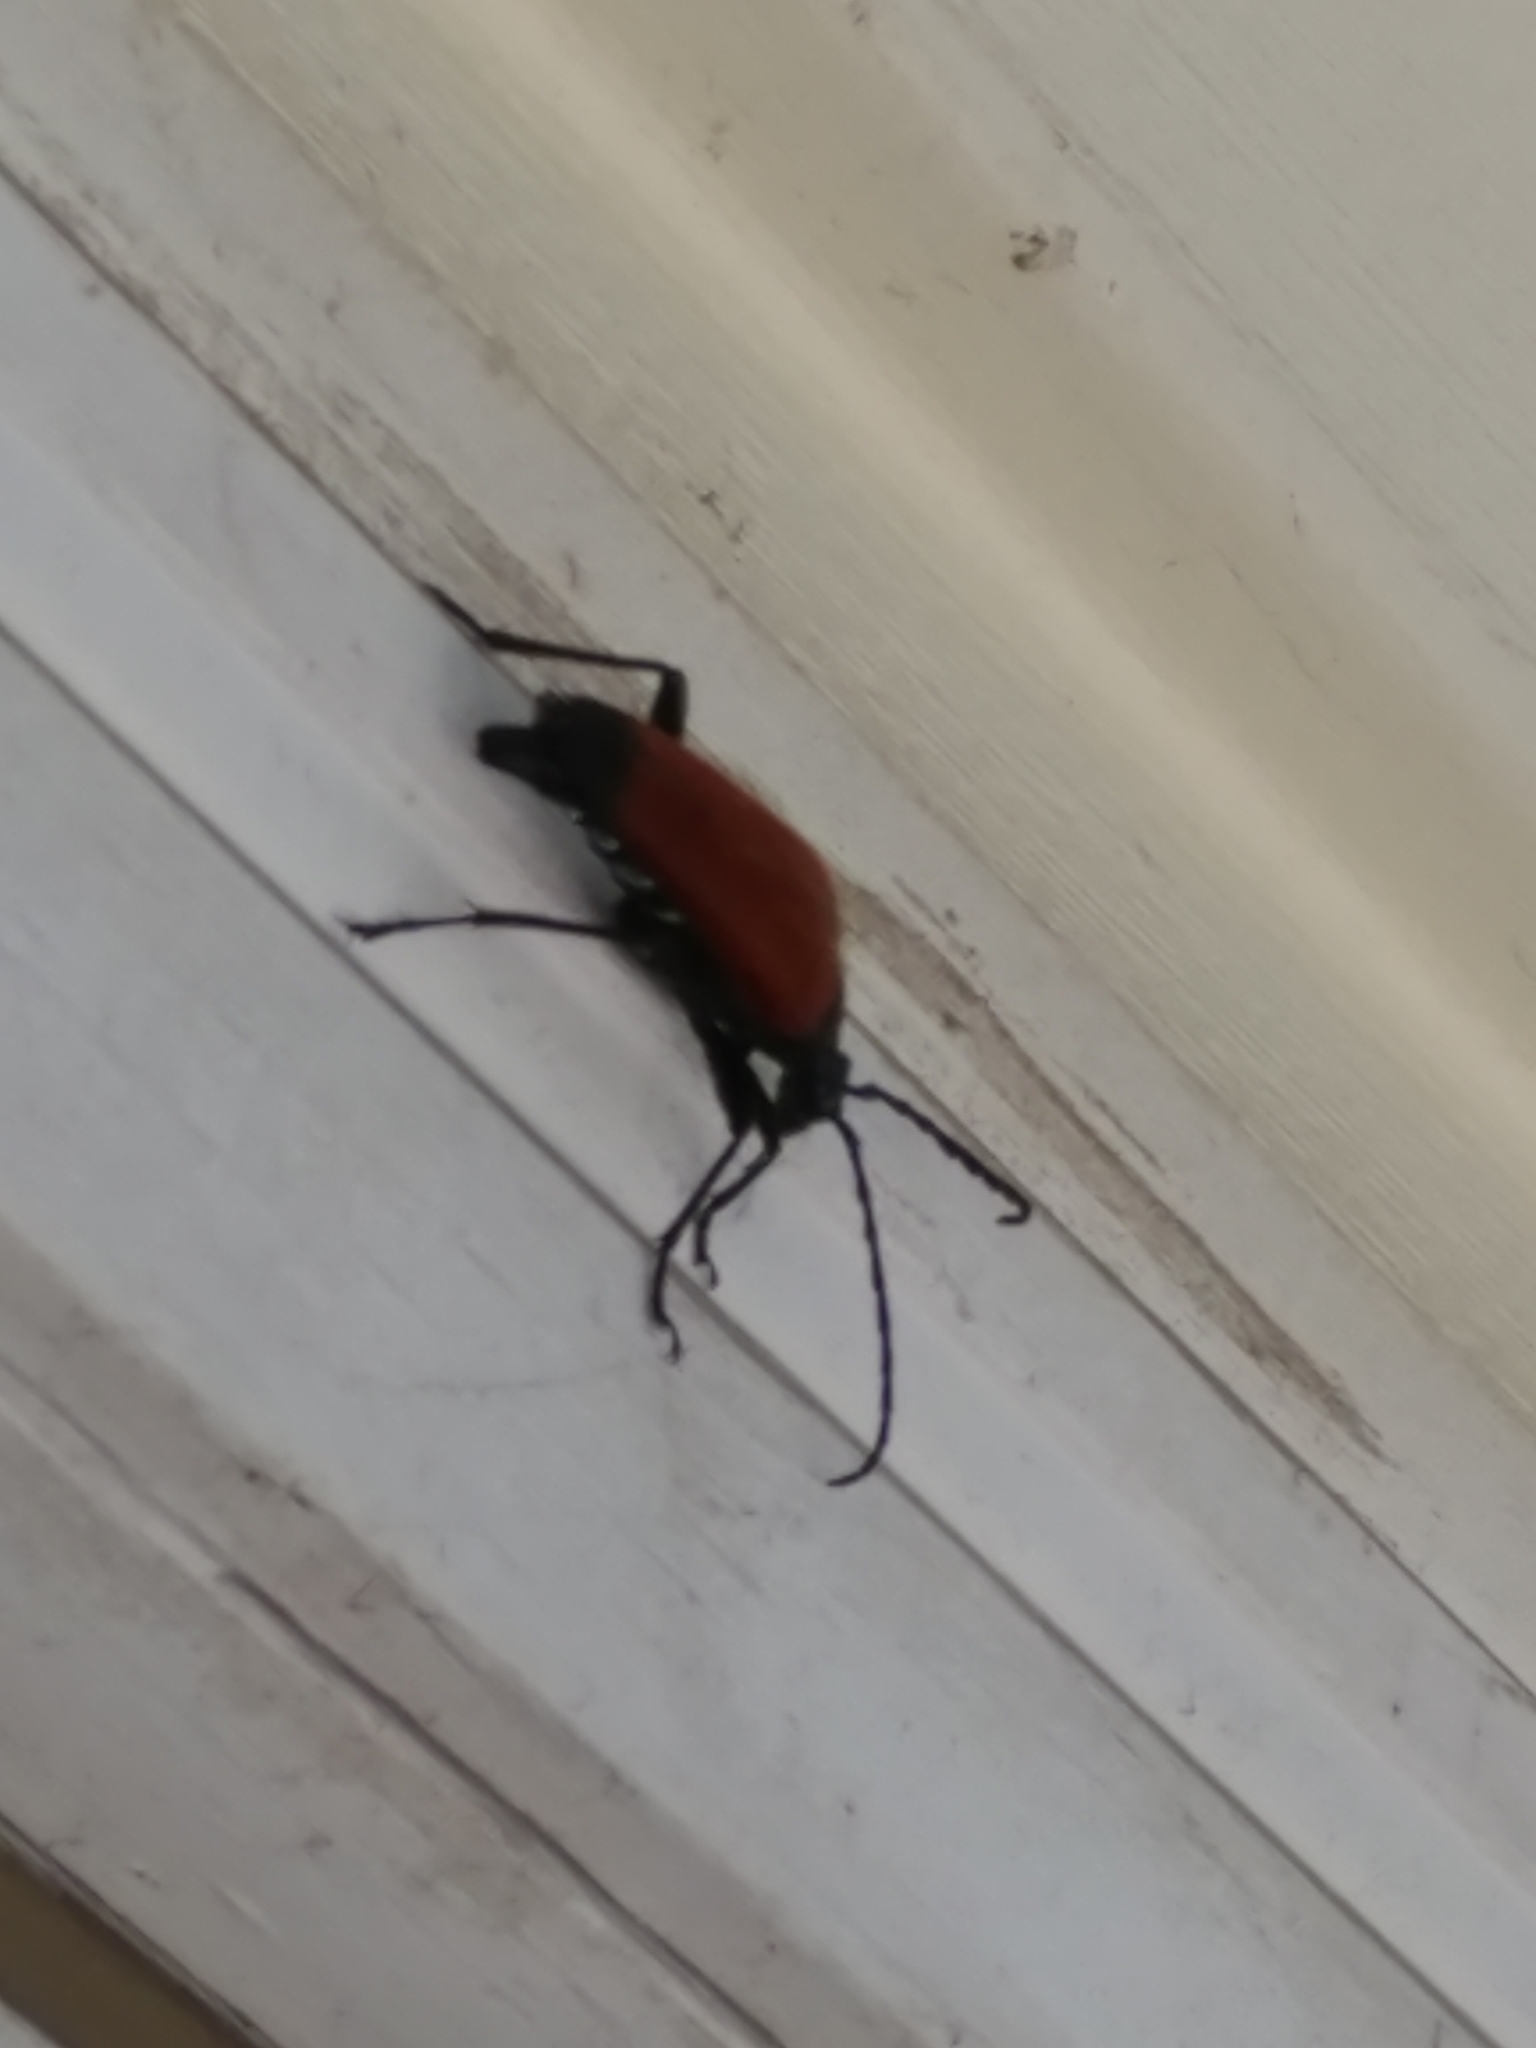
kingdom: Animalia
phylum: Arthropoda
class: Insecta
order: Coleoptera
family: Cerambycidae
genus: Stenelytrana
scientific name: Stenelytrana emarginata
